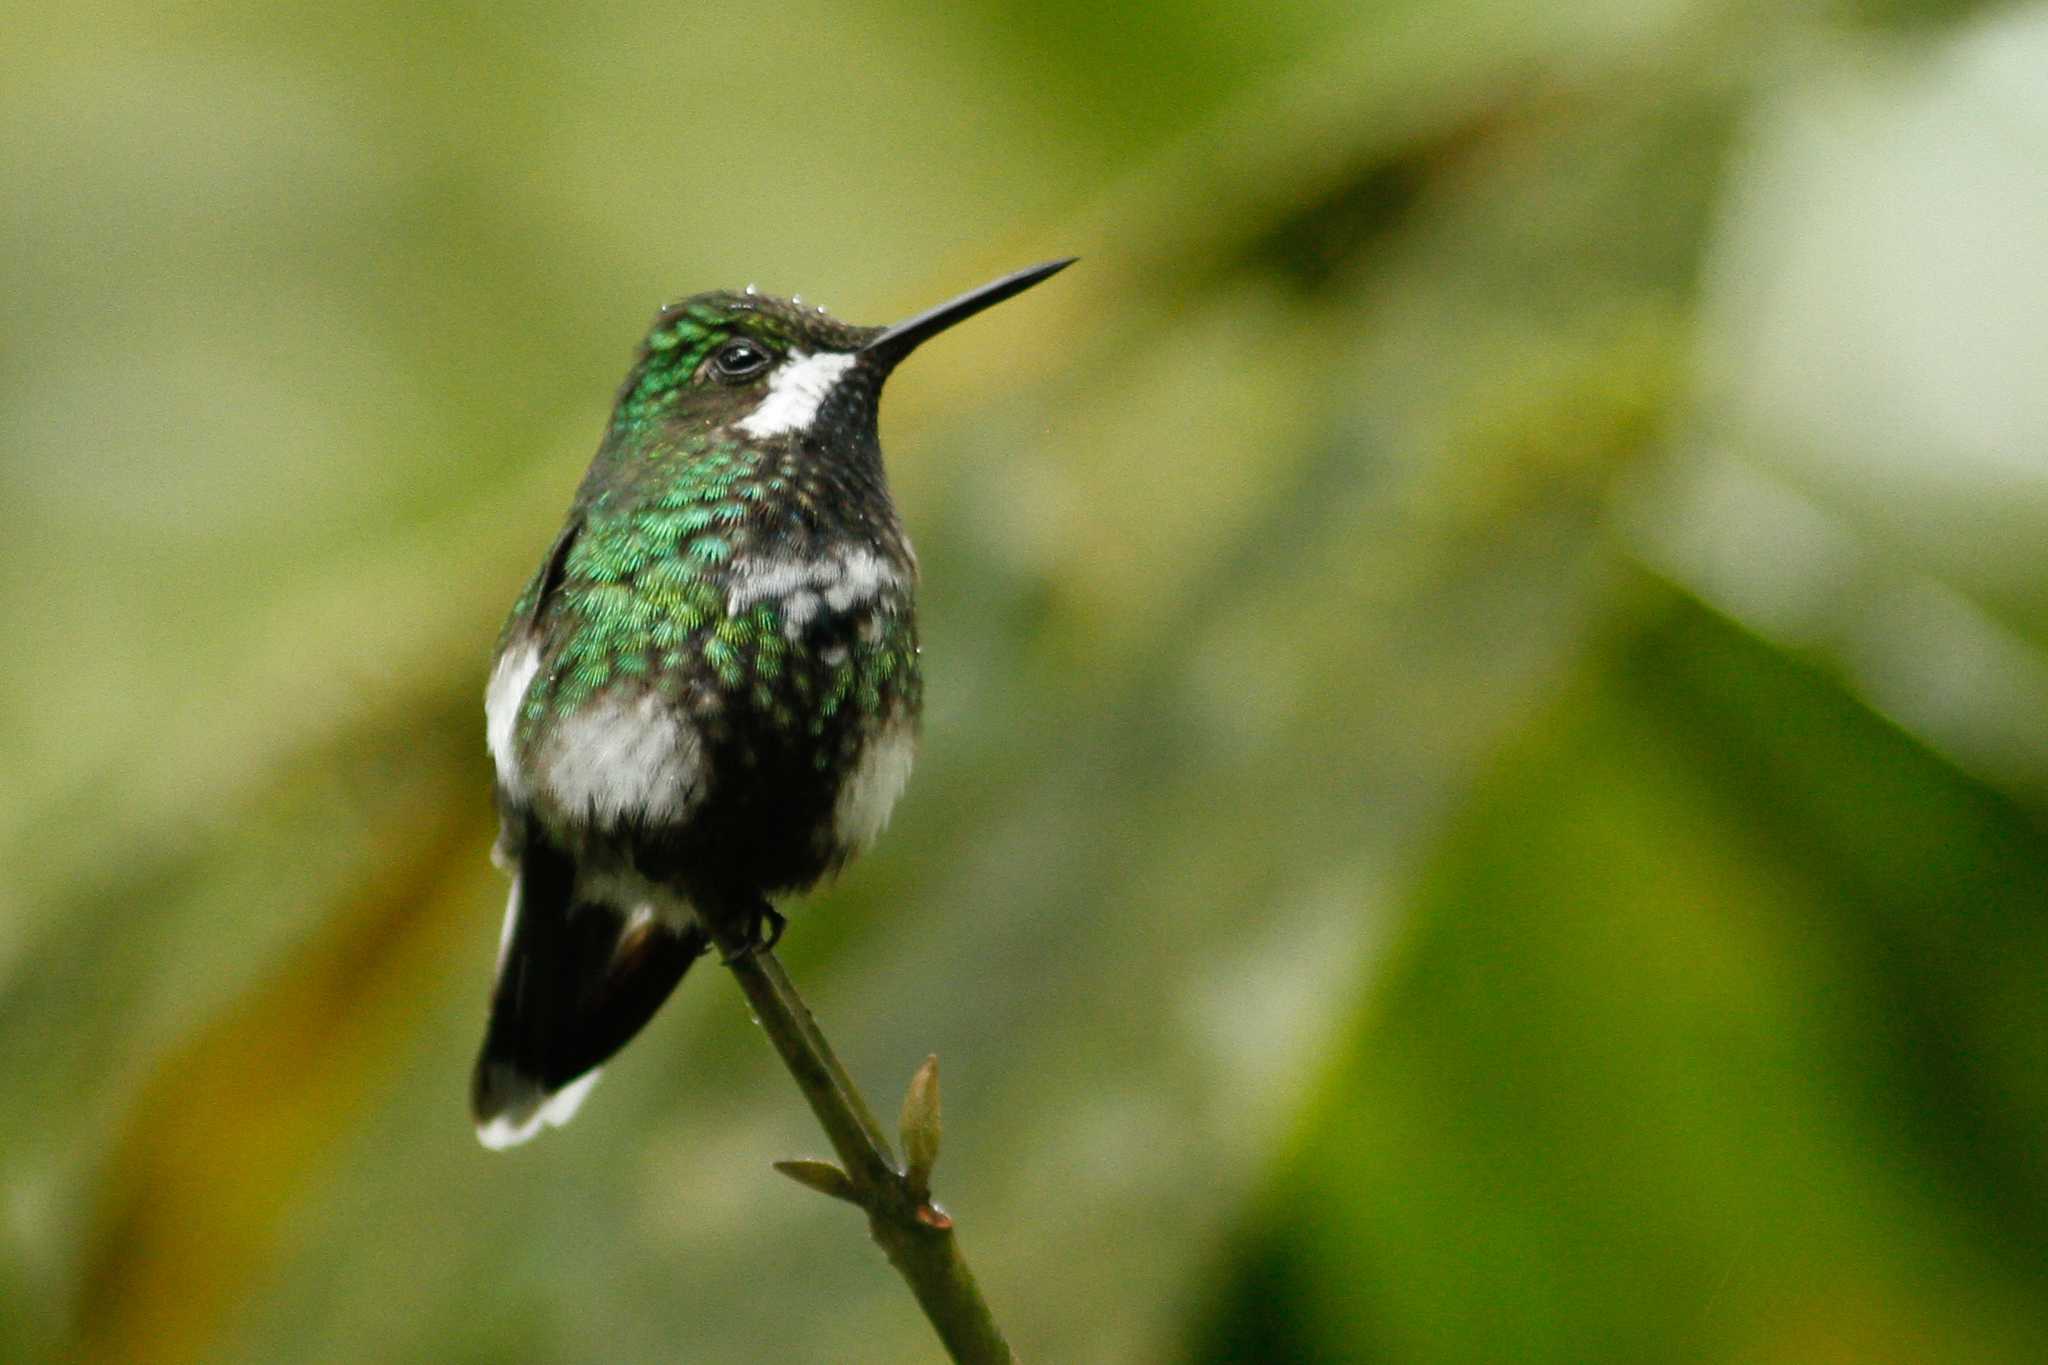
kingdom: Animalia
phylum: Chordata
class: Aves
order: Apodiformes
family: Trochilidae
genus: Discosura
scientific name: Discosura conversii
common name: Green thorntail
